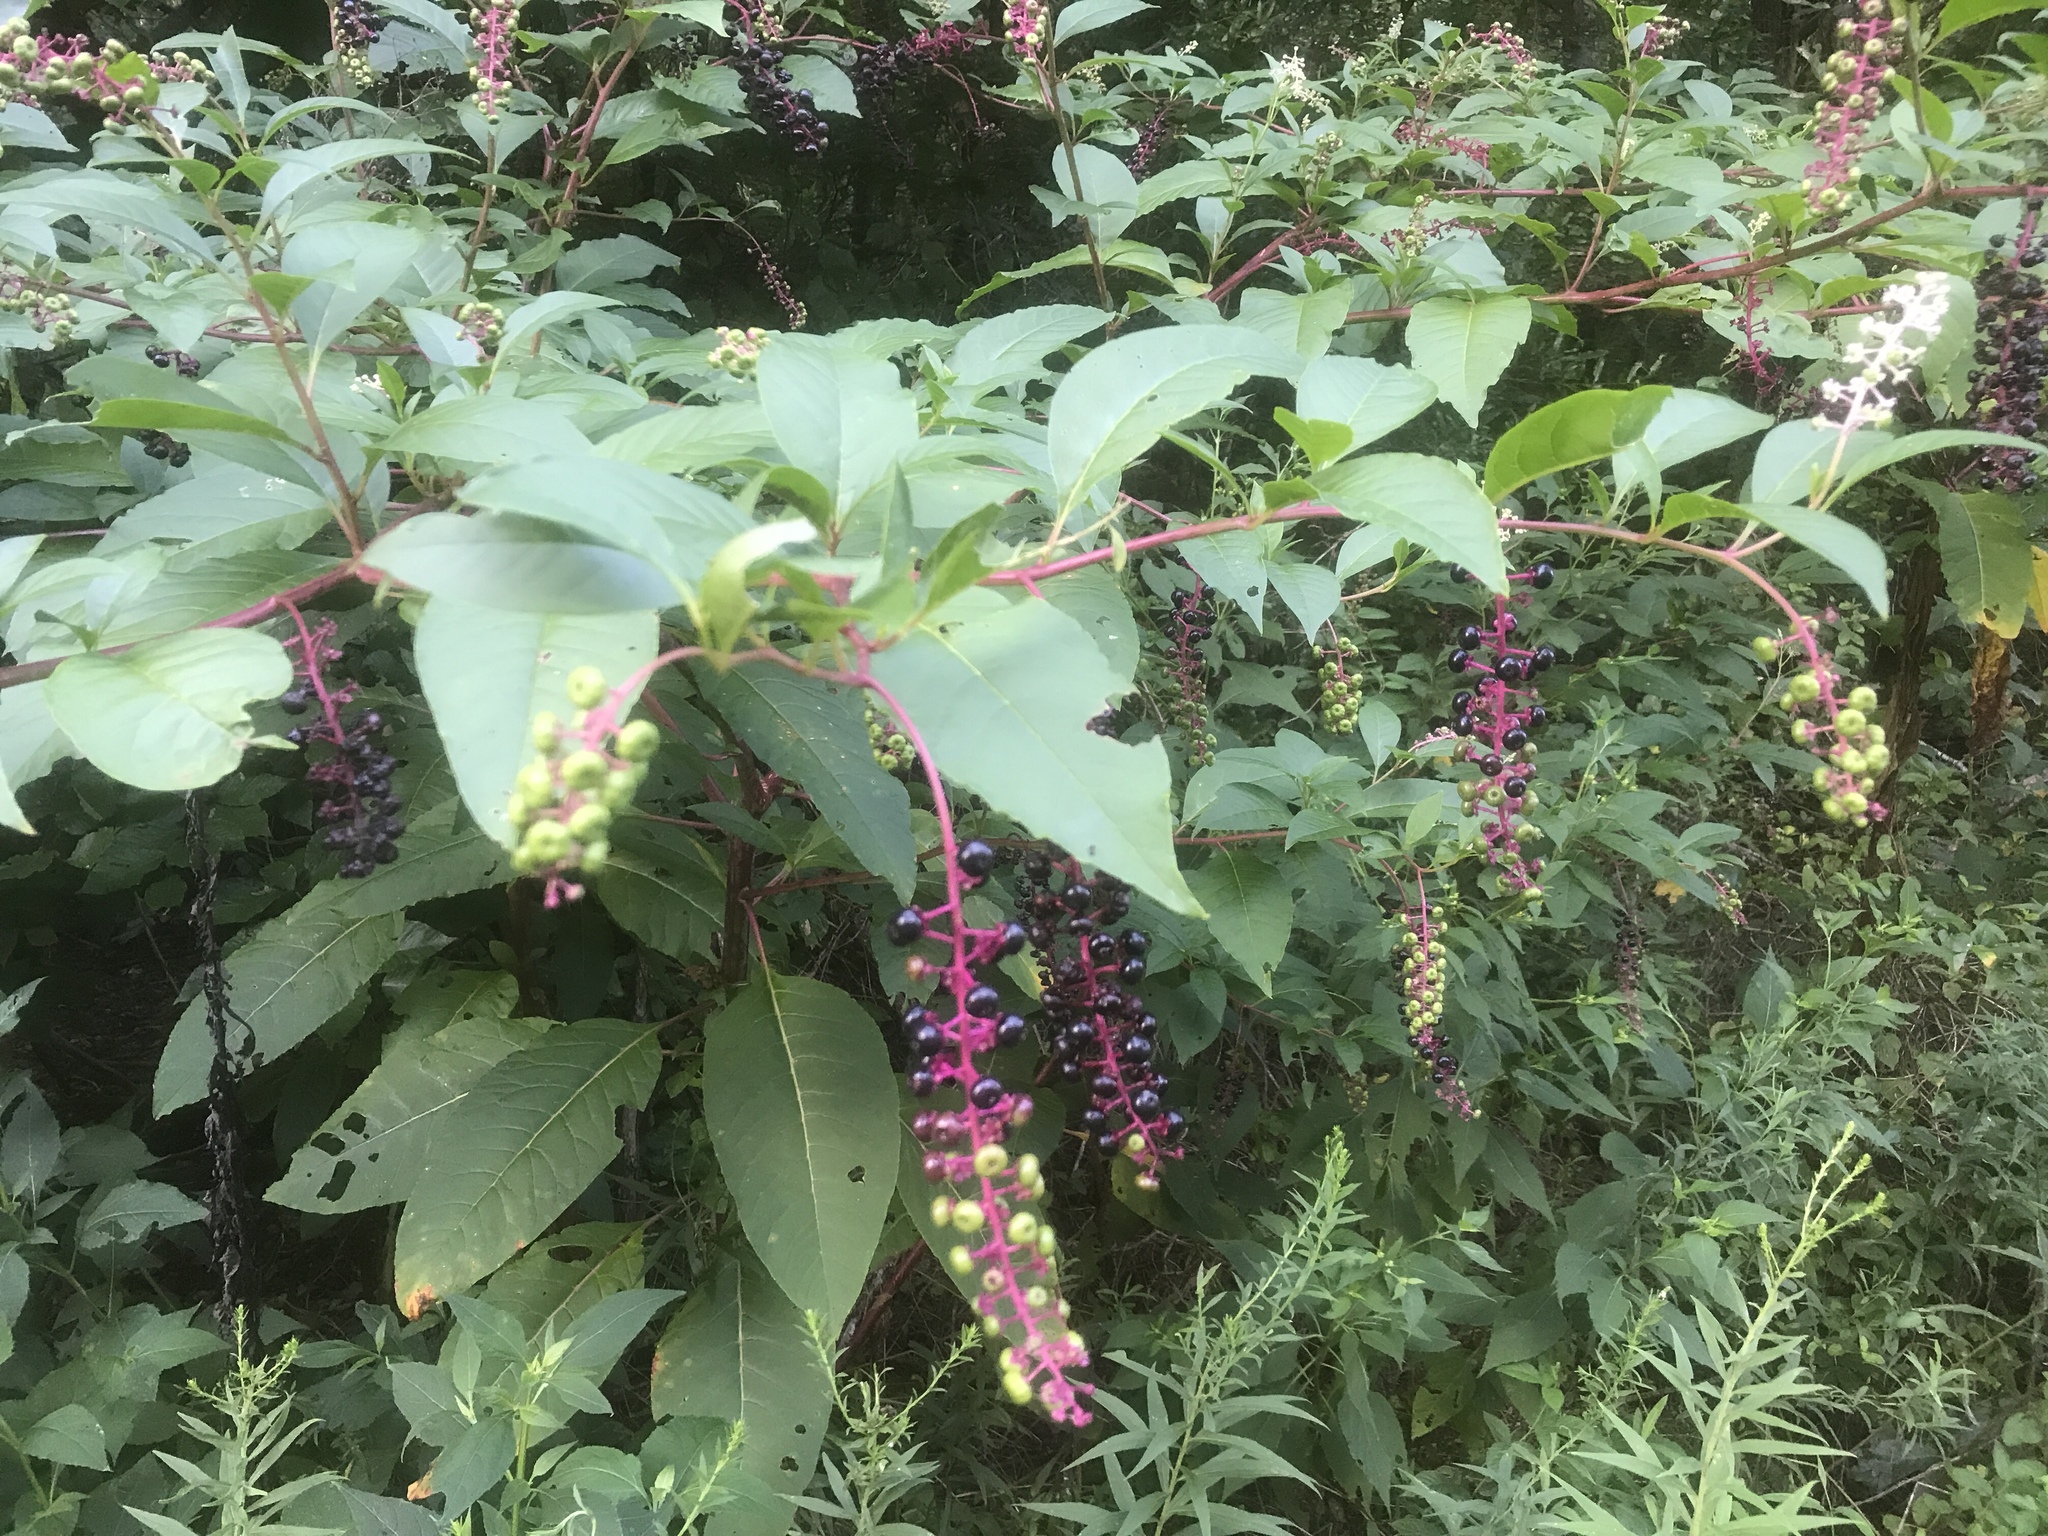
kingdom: Plantae
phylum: Tracheophyta
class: Magnoliopsida
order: Caryophyllales
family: Phytolaccaceae
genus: Phytolacca
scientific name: Phytolacca americana
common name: American pokeweed
